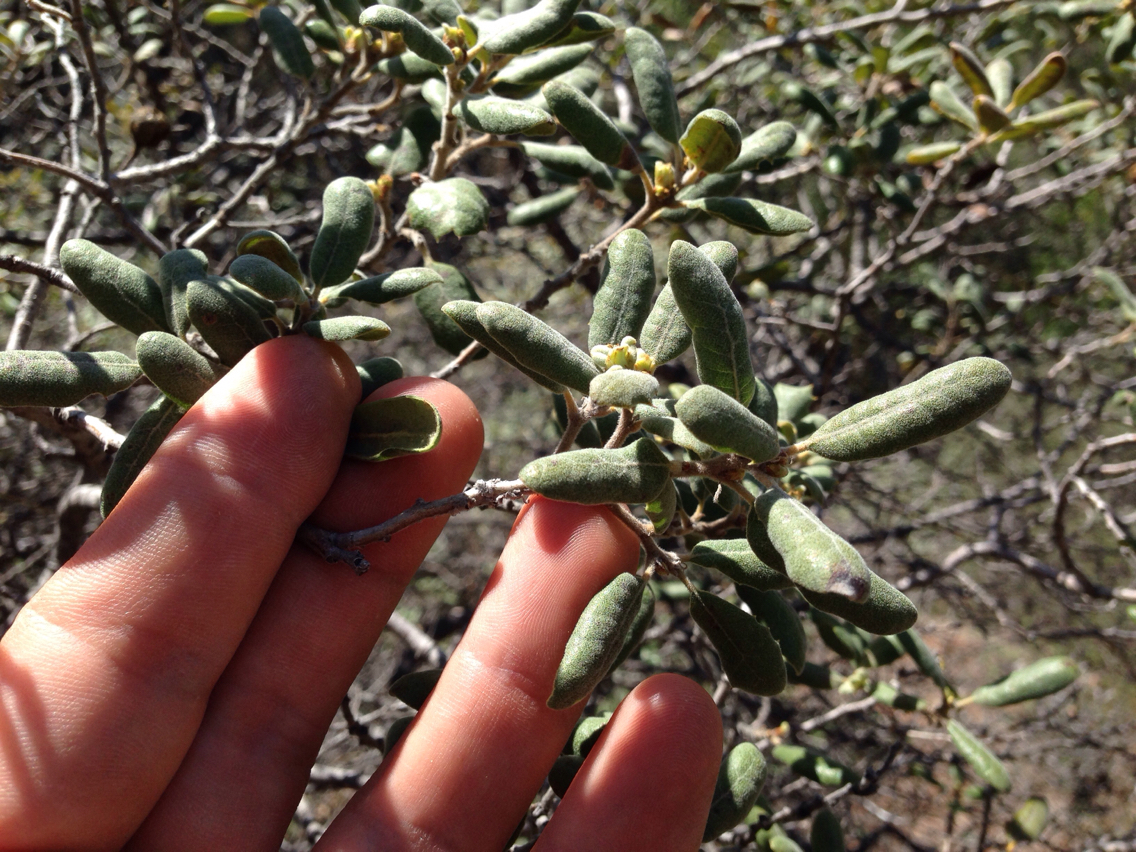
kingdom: Plantae
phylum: Tracheophyta
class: Magnoliopsida
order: Fagales
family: Fagaceae
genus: Quercus
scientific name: Quercus durata
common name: Leather oak
